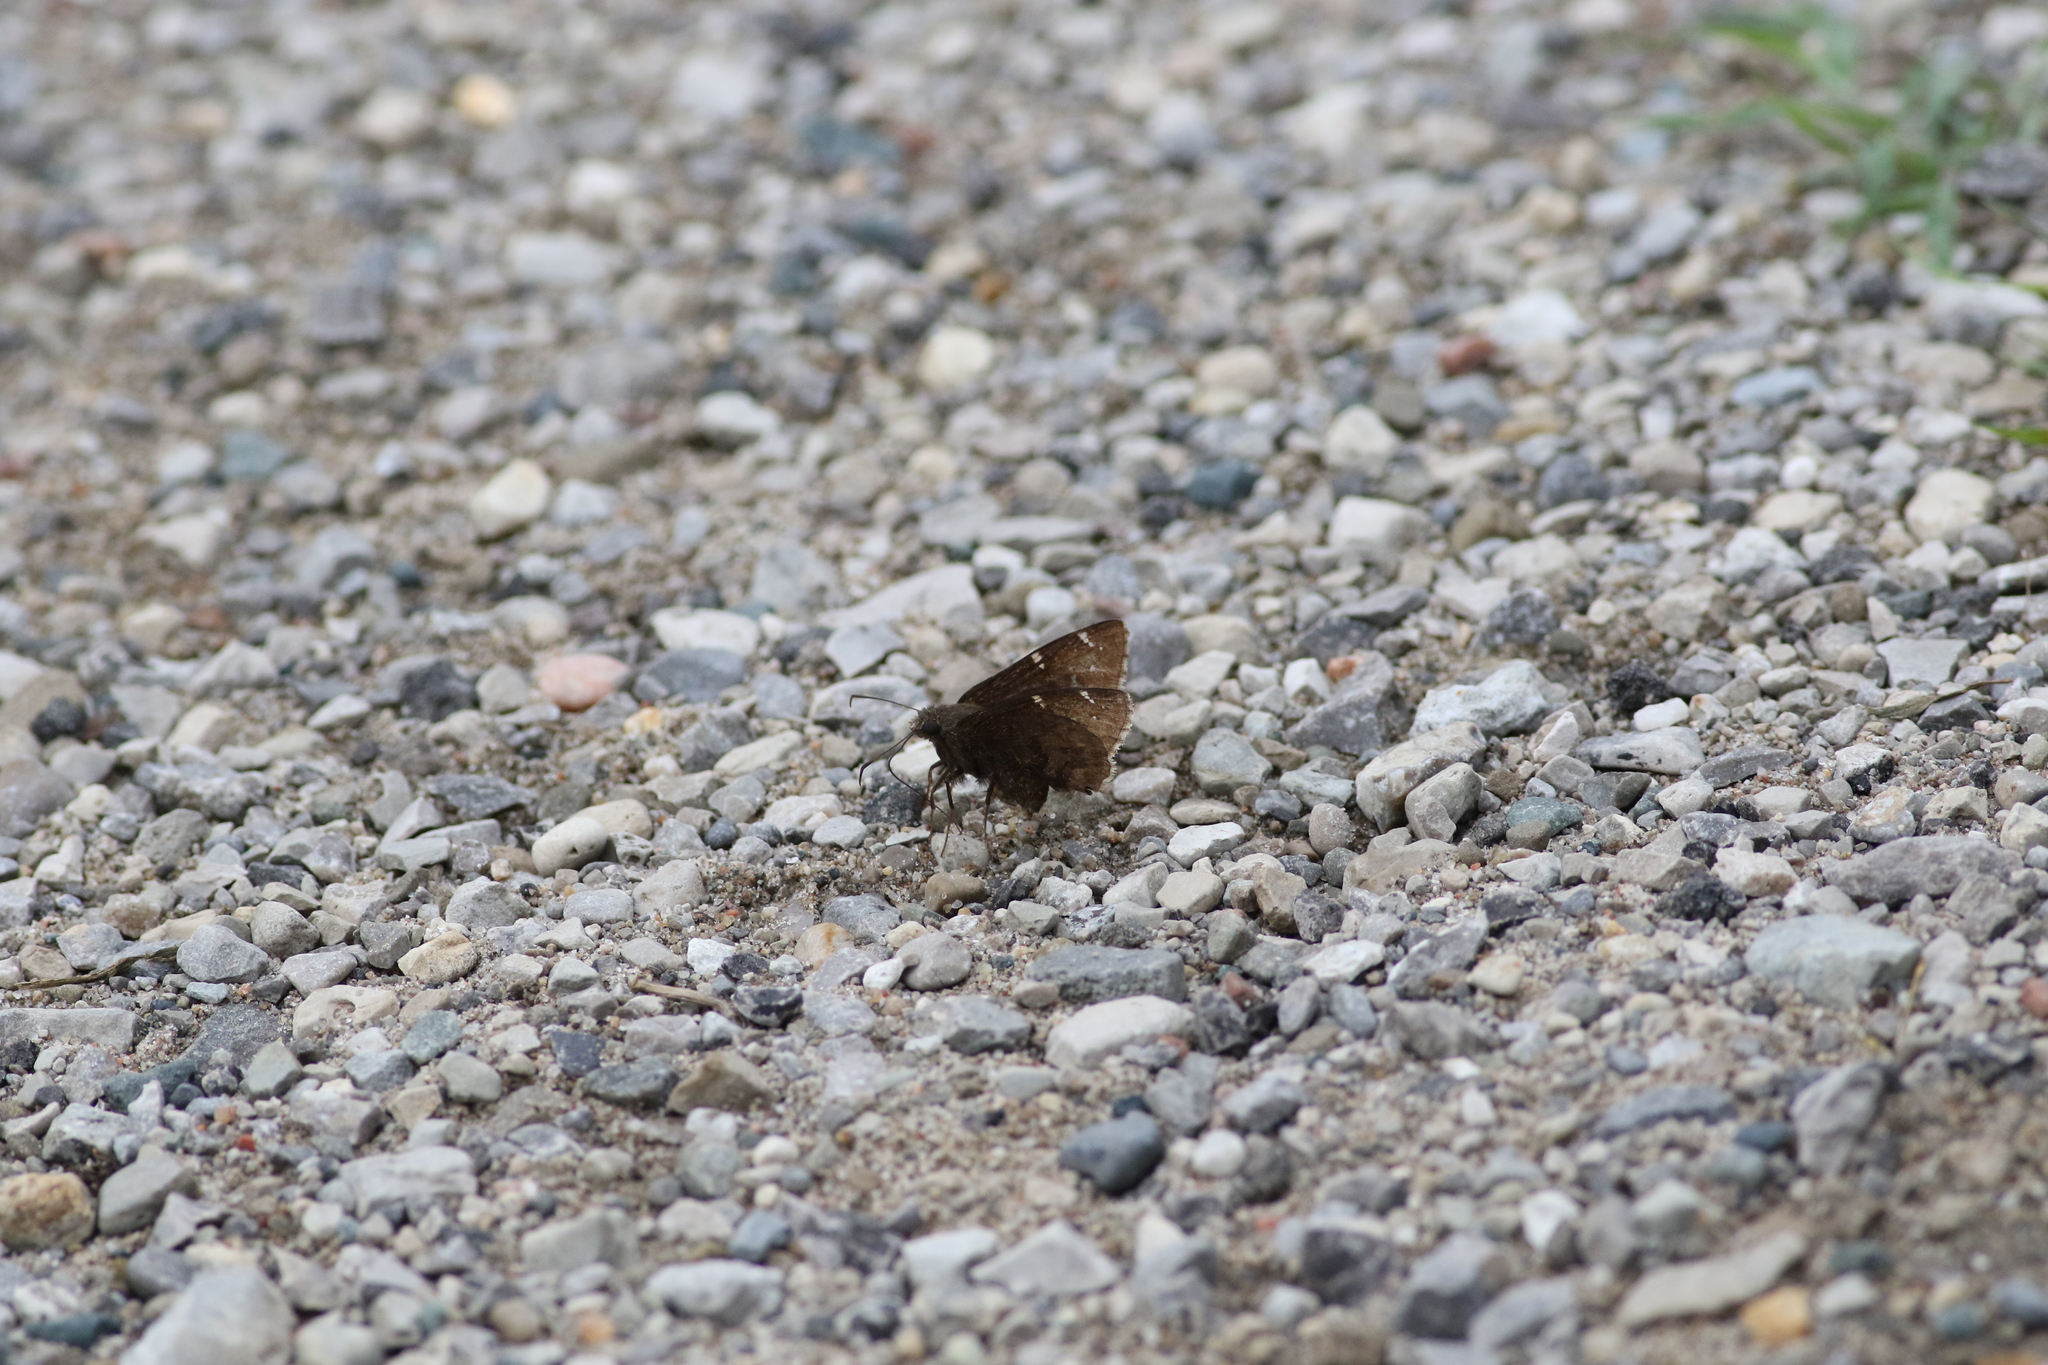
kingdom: Animalia
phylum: Arthropoda
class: Insecta
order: Lepidoptera
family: Hesperiidae
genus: Thorybes
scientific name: Thorybes pylades
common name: Northern cloudywing
